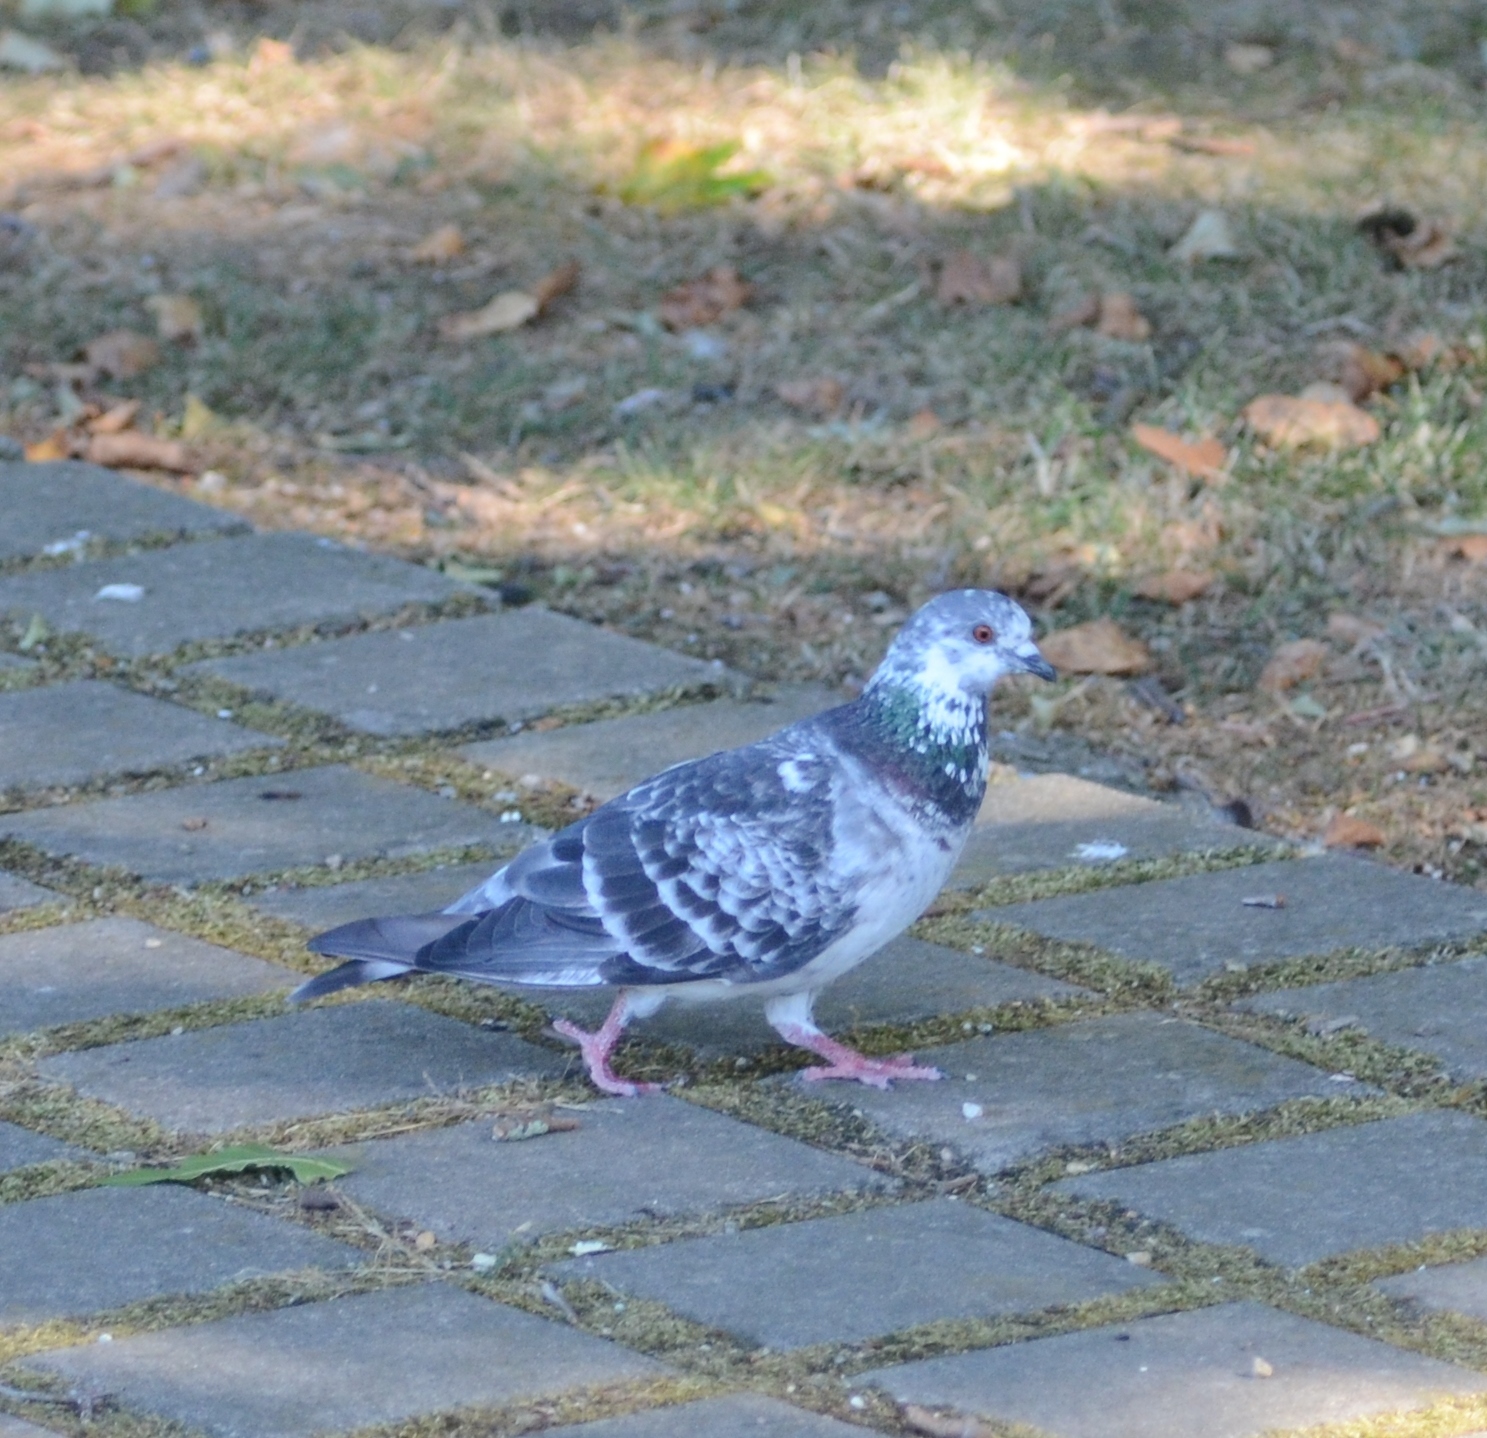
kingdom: Animalia
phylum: Chordata
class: Aves
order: Columbiformes
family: Columbidae
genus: Columba
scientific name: Columba livia
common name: Rock pigeon
